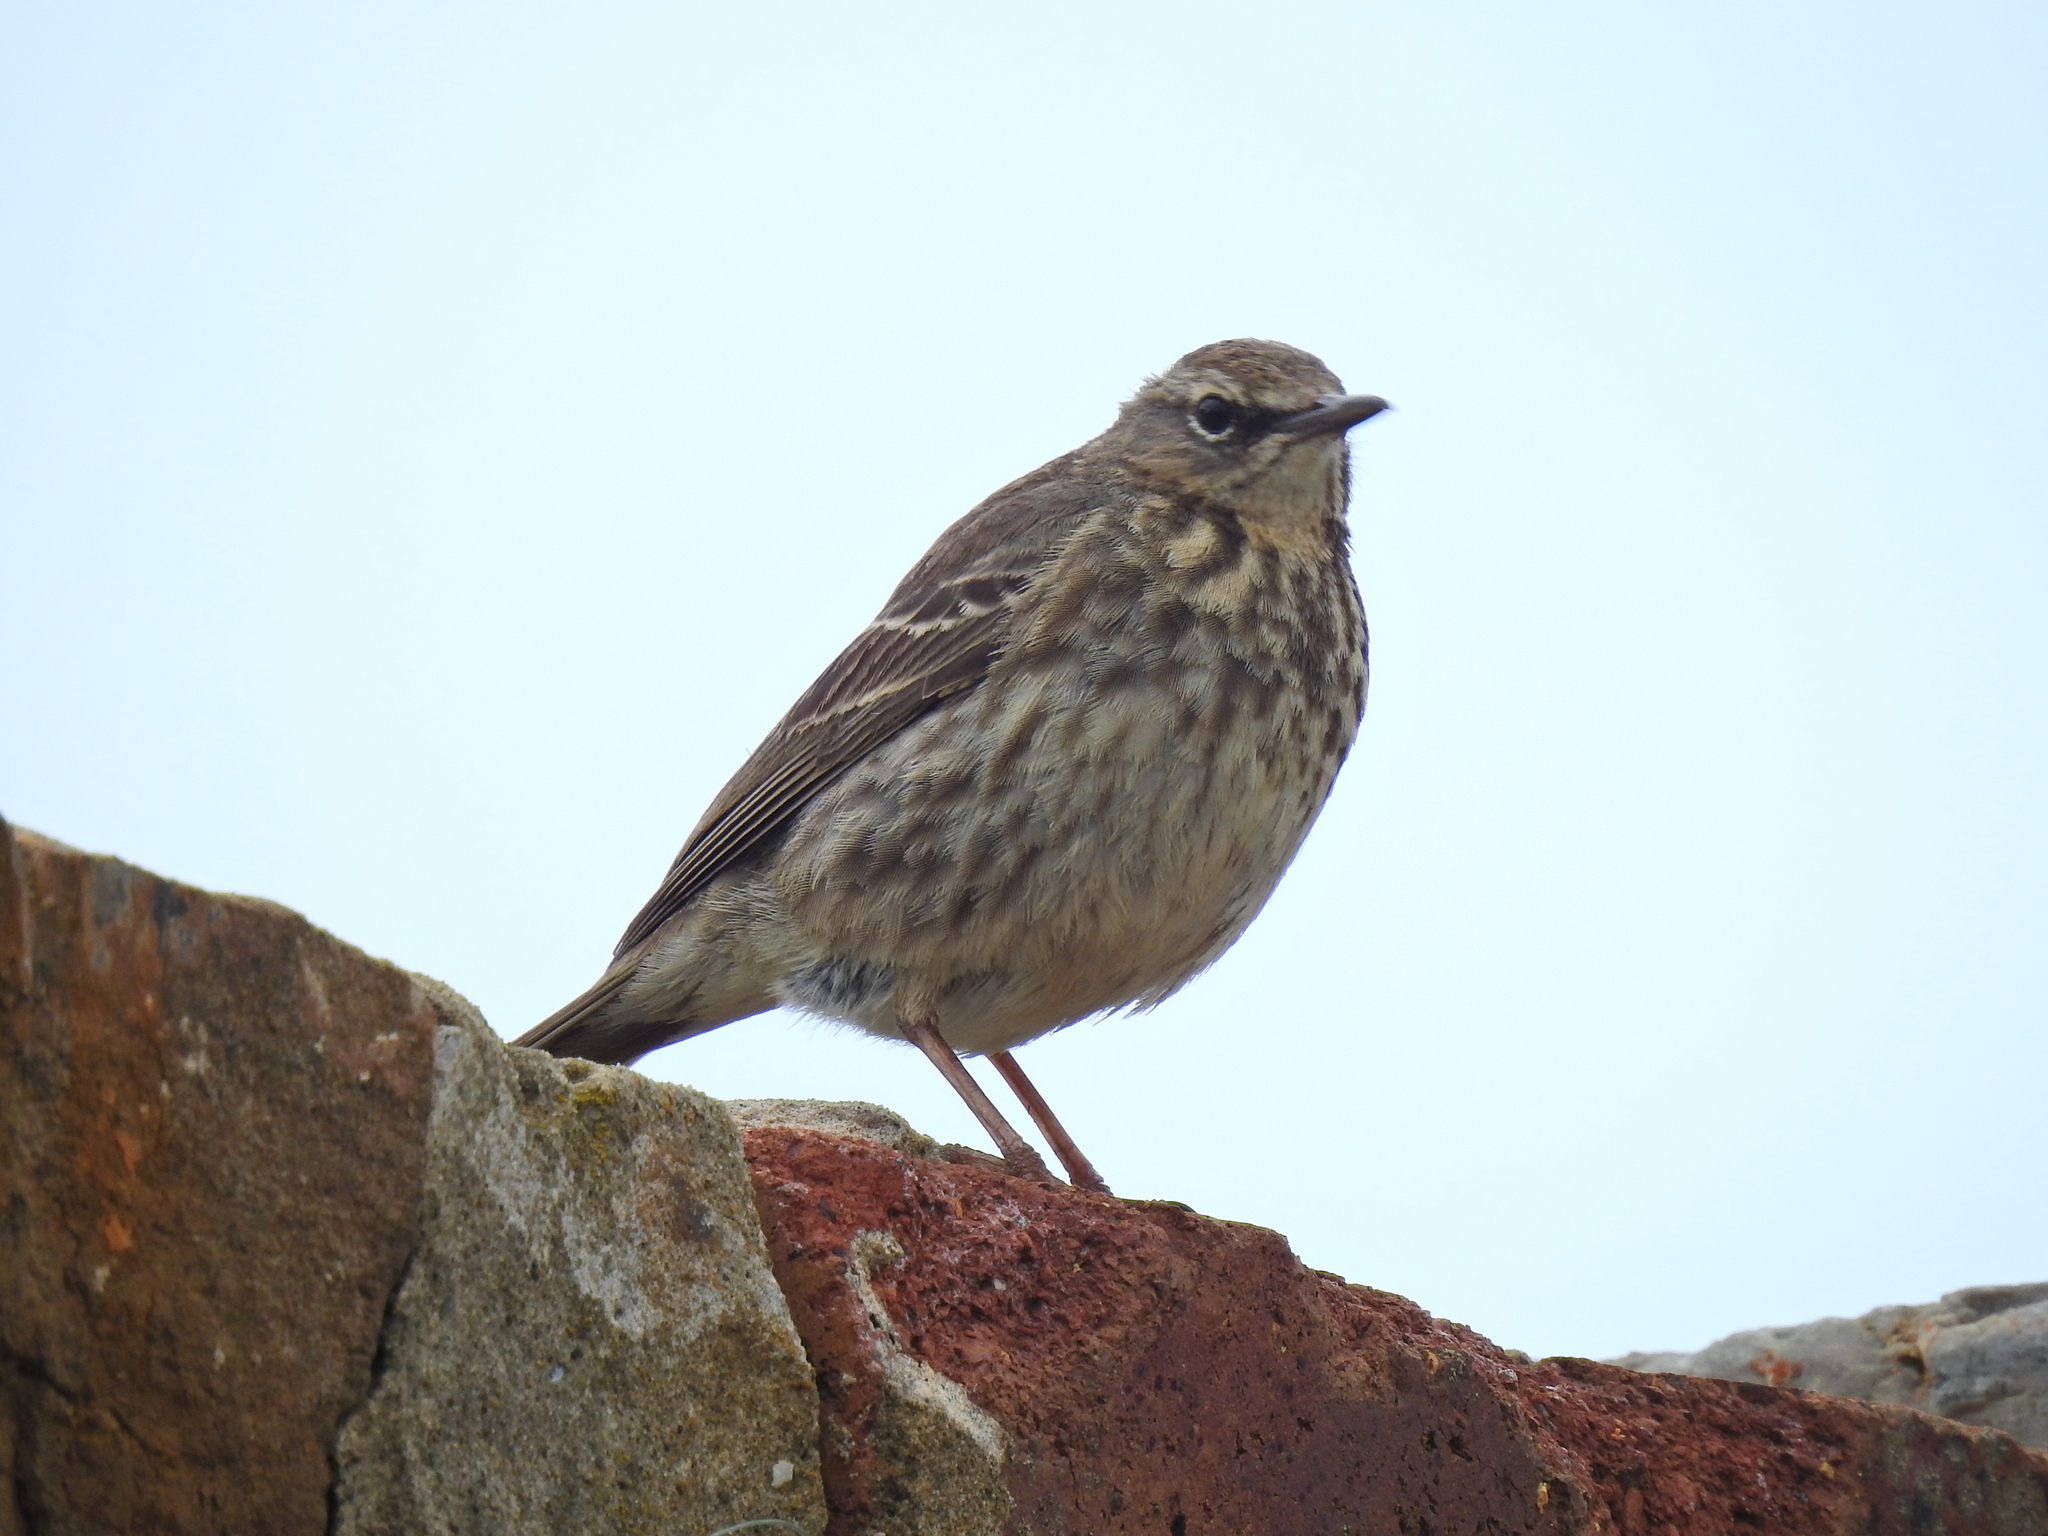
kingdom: Animalia
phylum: Chordata
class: Aves
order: Passeriformes
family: Motacillidae
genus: Anthus
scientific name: Anthus petrosus
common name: Eurasian rock pipit
